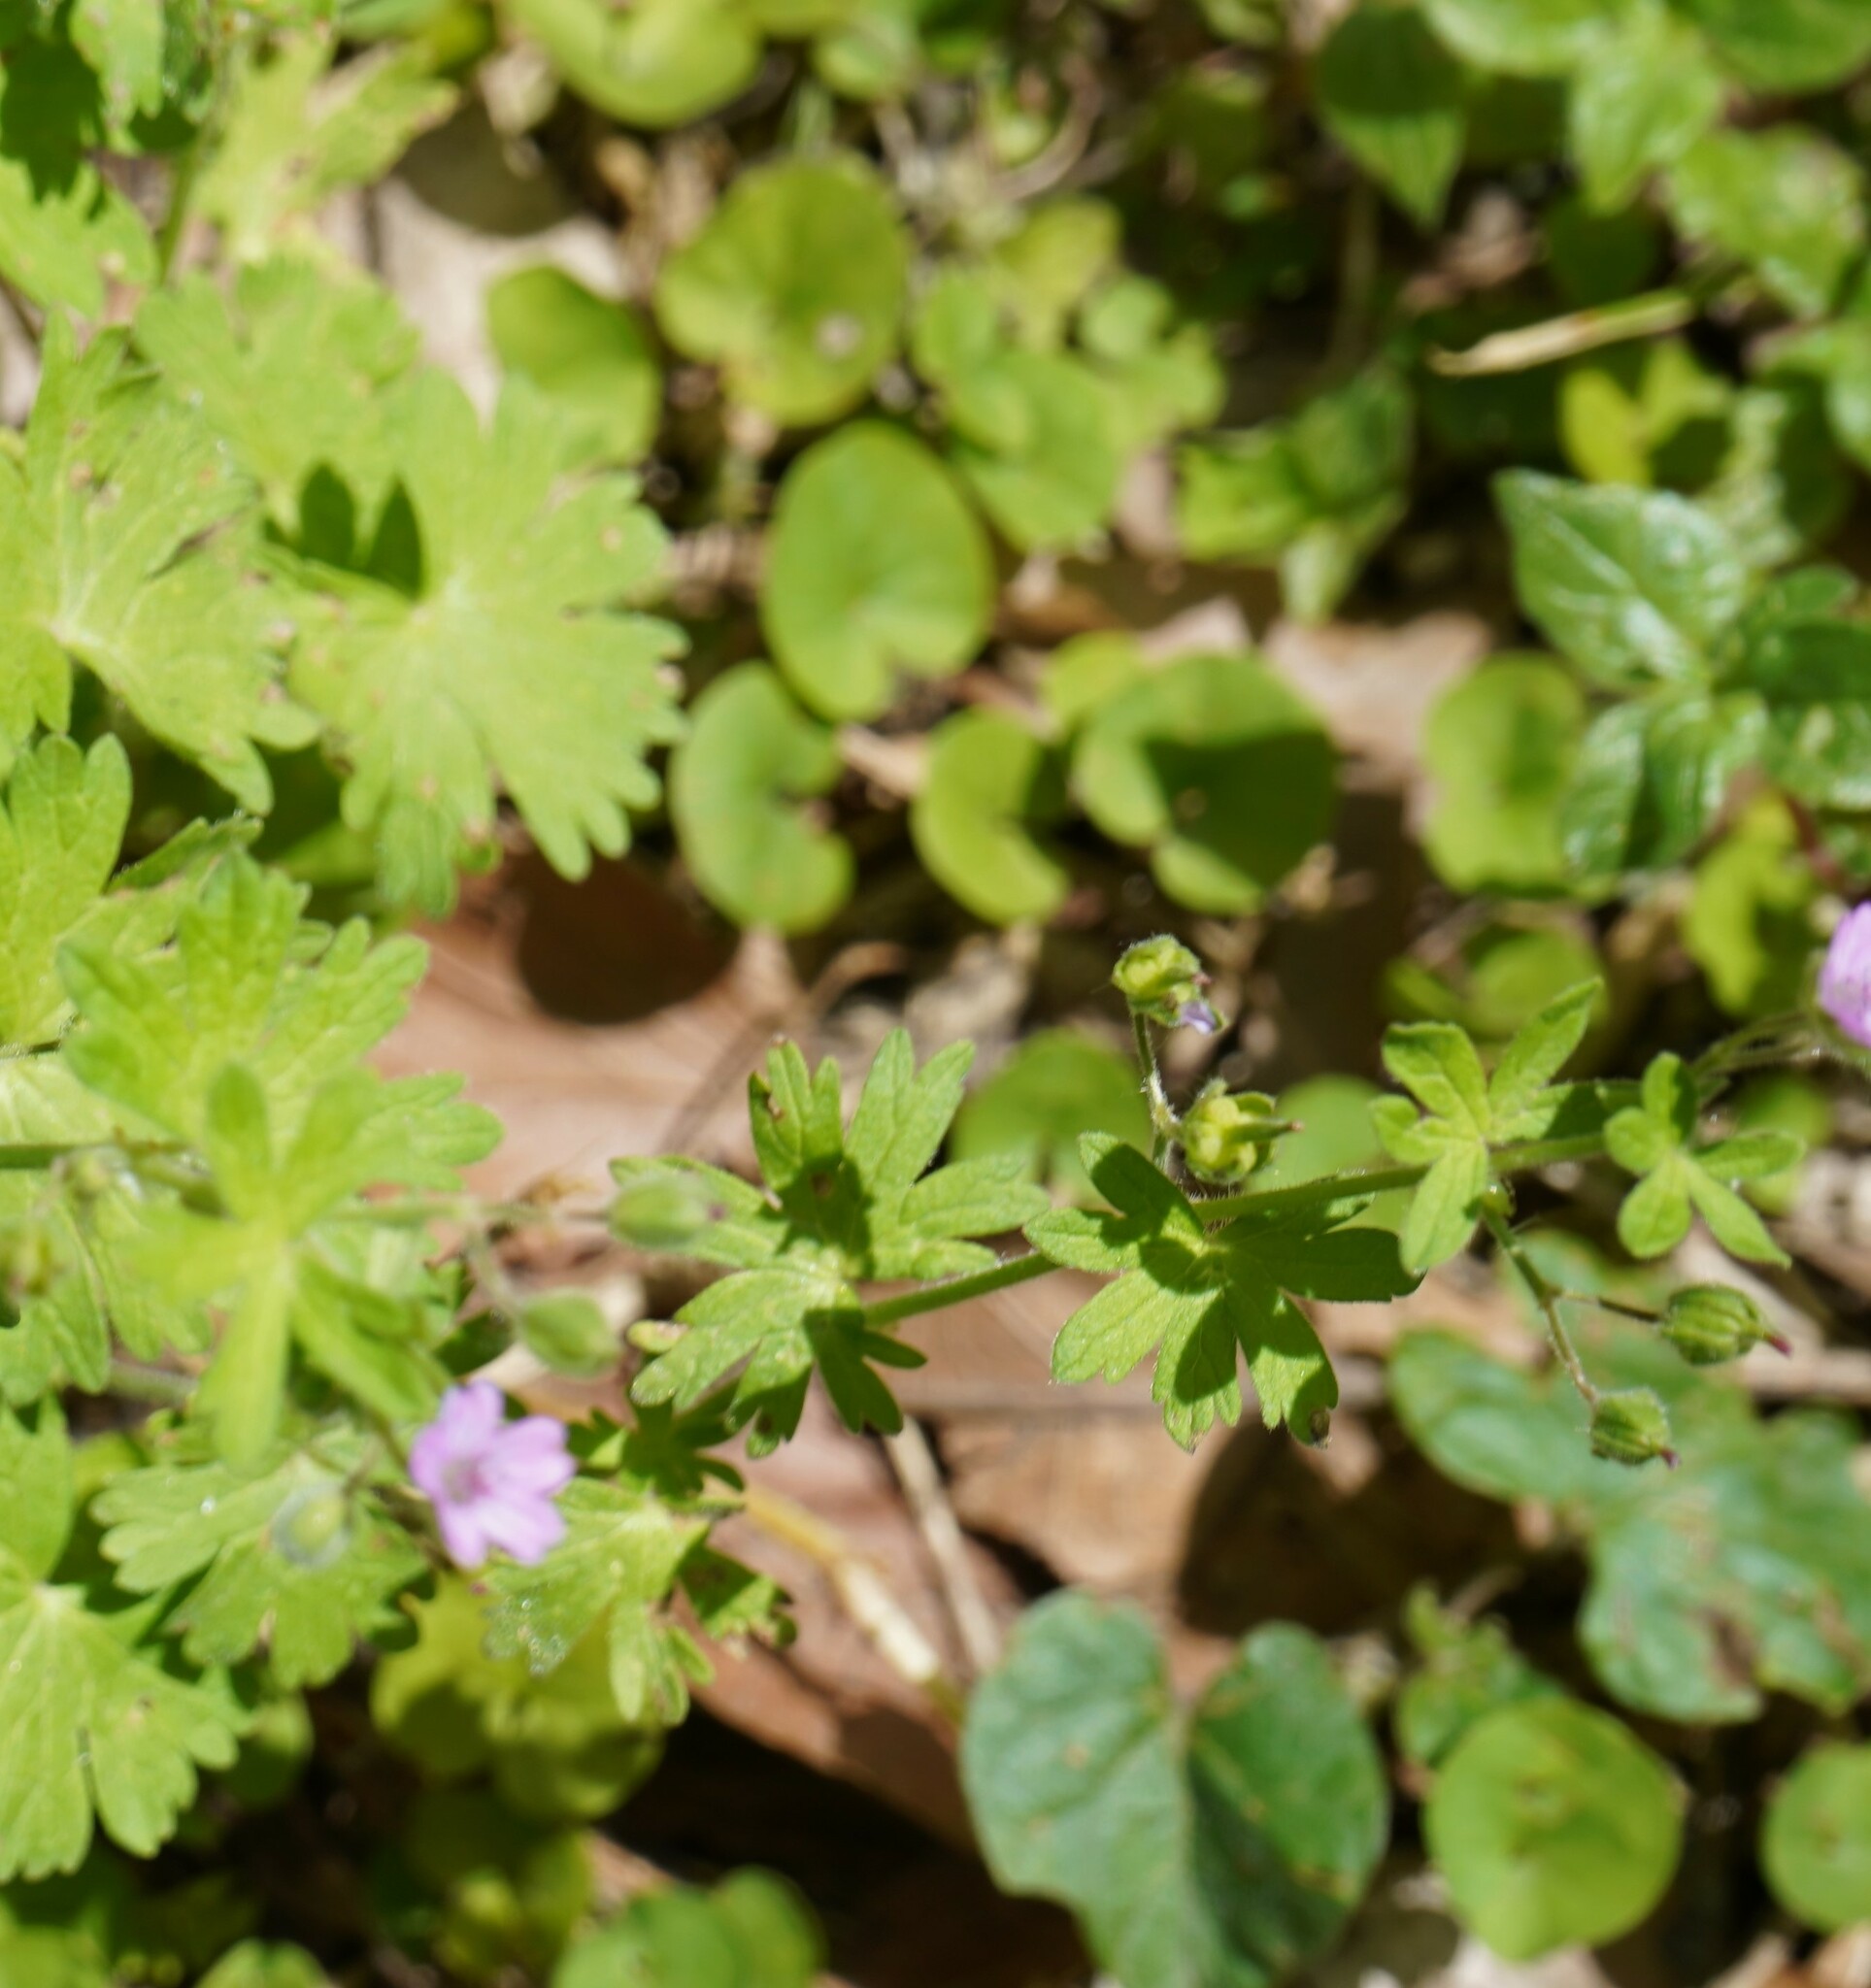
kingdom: Plantae
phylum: Tracheophyta
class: Magnoliopsida
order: Geraniales
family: Geraniaceae
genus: Geranium
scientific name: Geranium molle
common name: Dove's-foot crane's-bill
